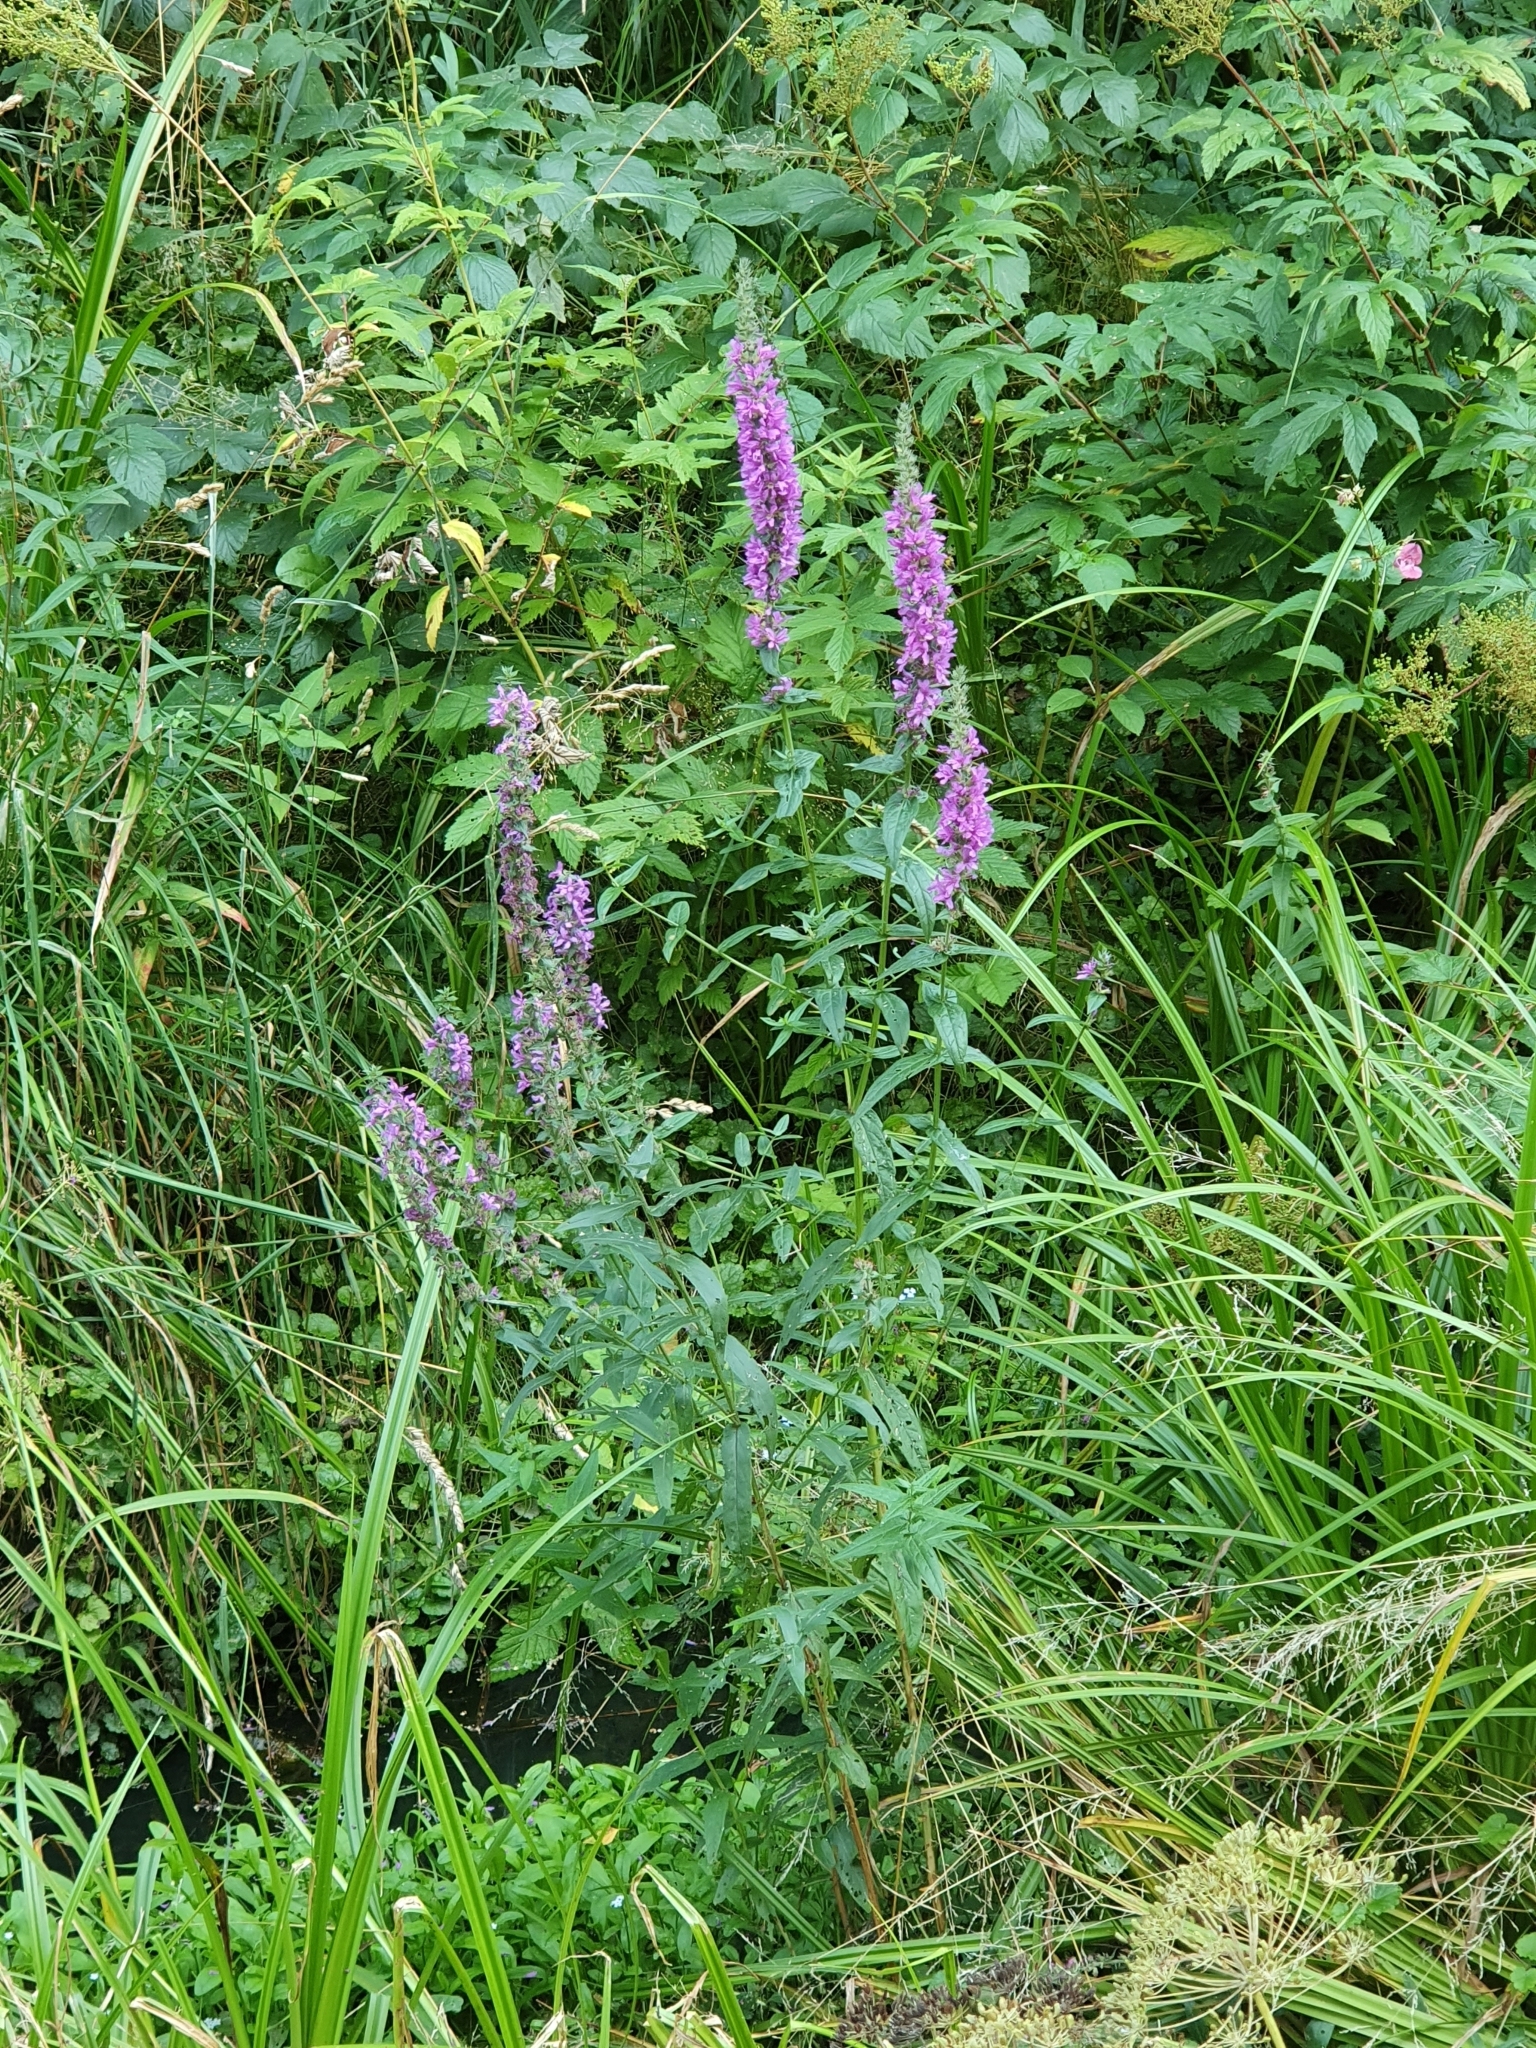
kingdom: Plantae
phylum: Tracheophyta
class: Magnoliopsida
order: Myrtales
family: Lythraceae
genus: Lythrum
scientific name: Lythrum salicaria
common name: Purple loosestrife
